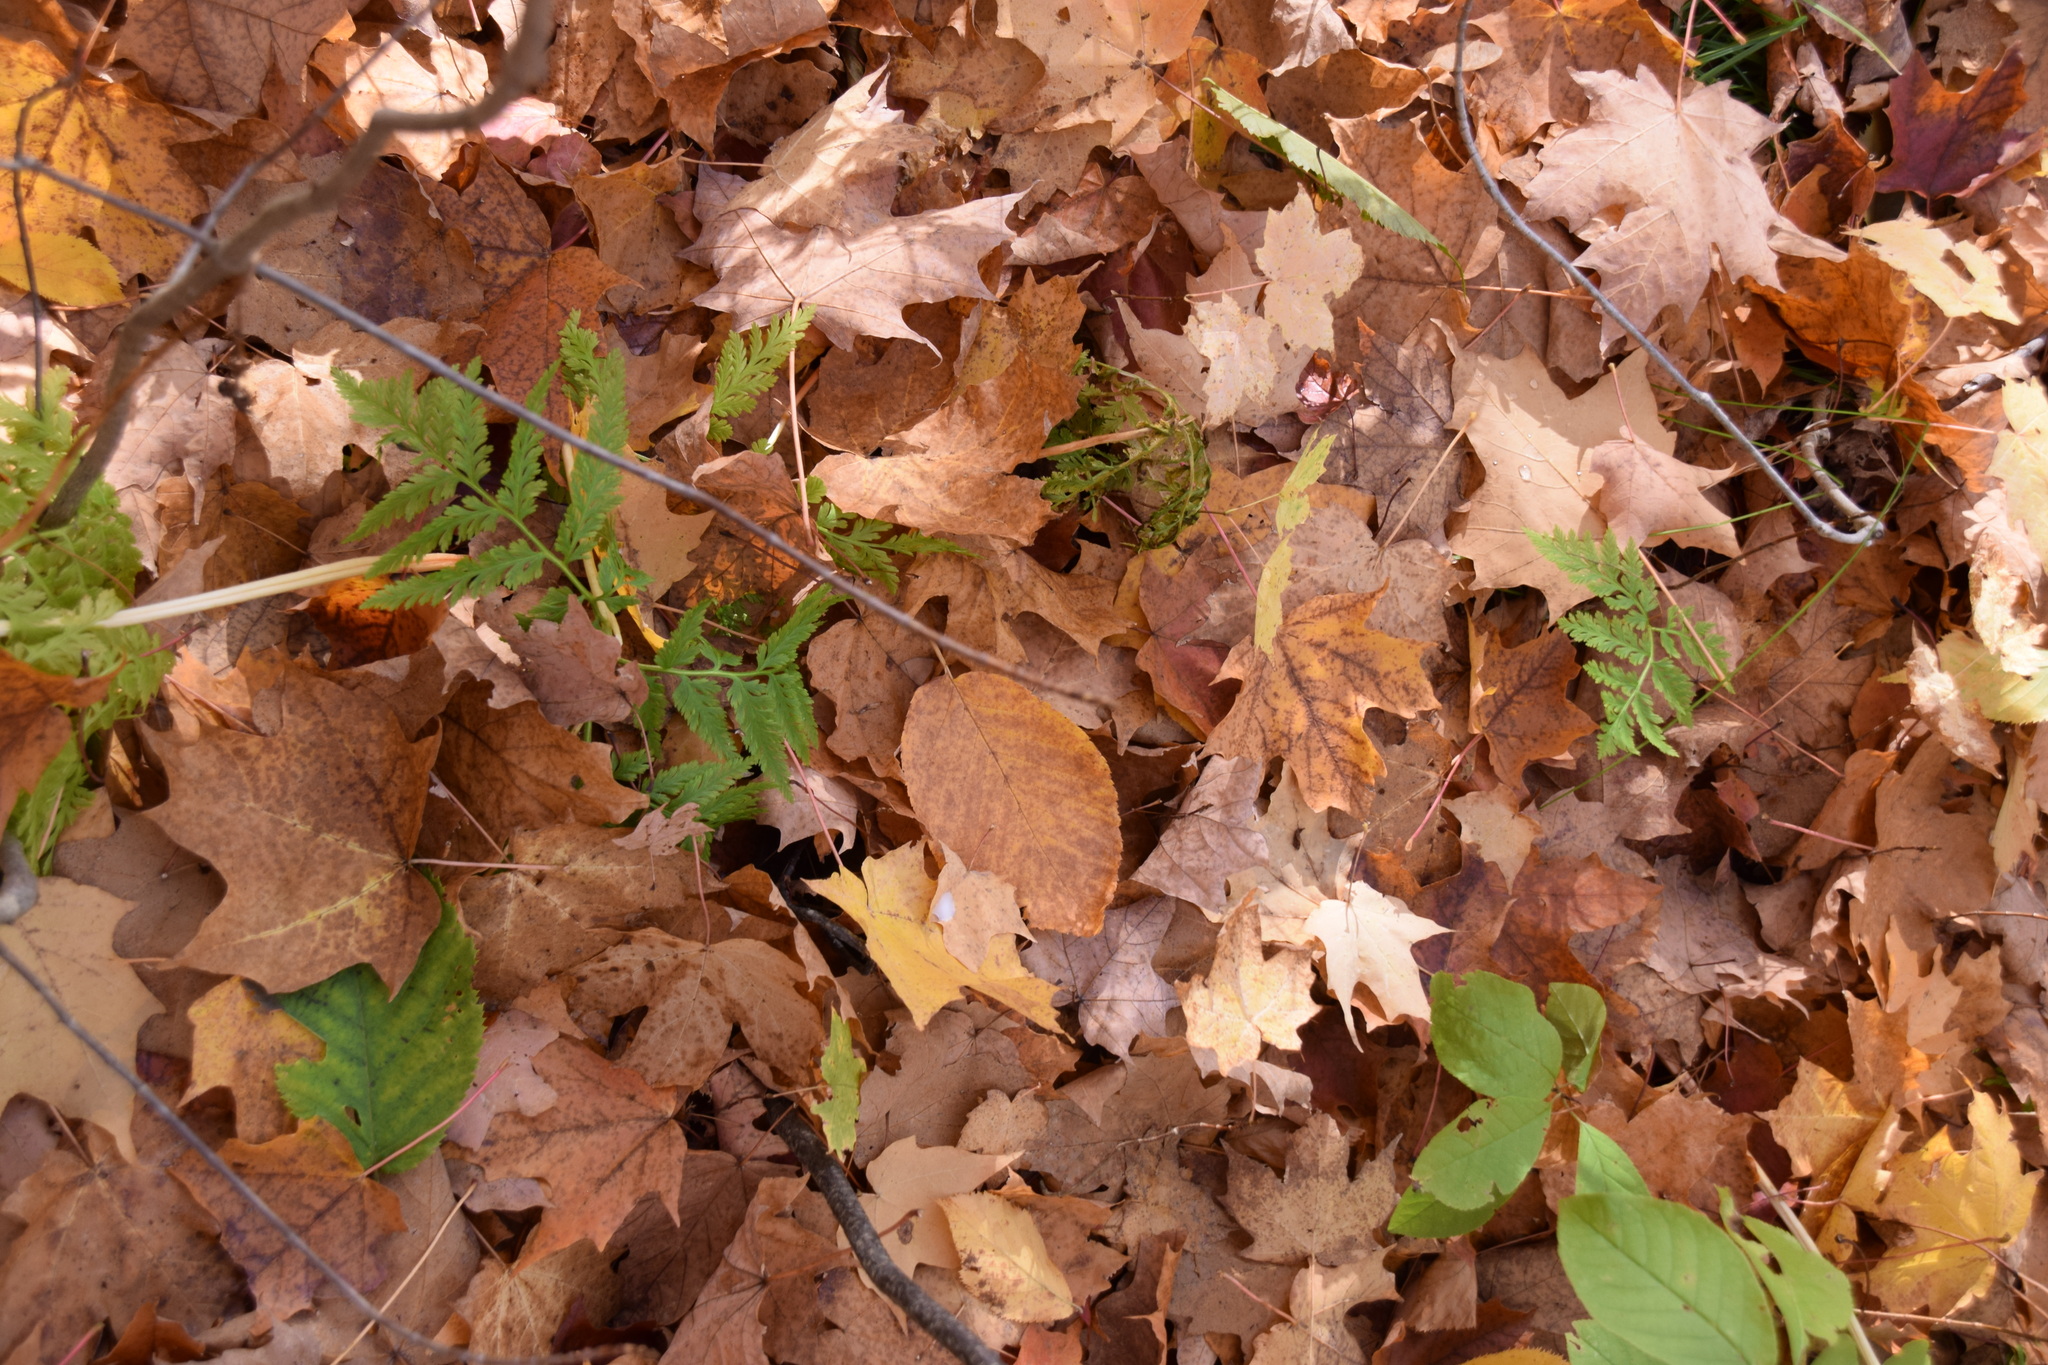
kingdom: Plantae
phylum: Tracheophyta
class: Polypodiopsida
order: Ophioglossales
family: Ophioglossaceae
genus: Botrypus
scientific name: Botrypus virginianus
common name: Common grapefern
